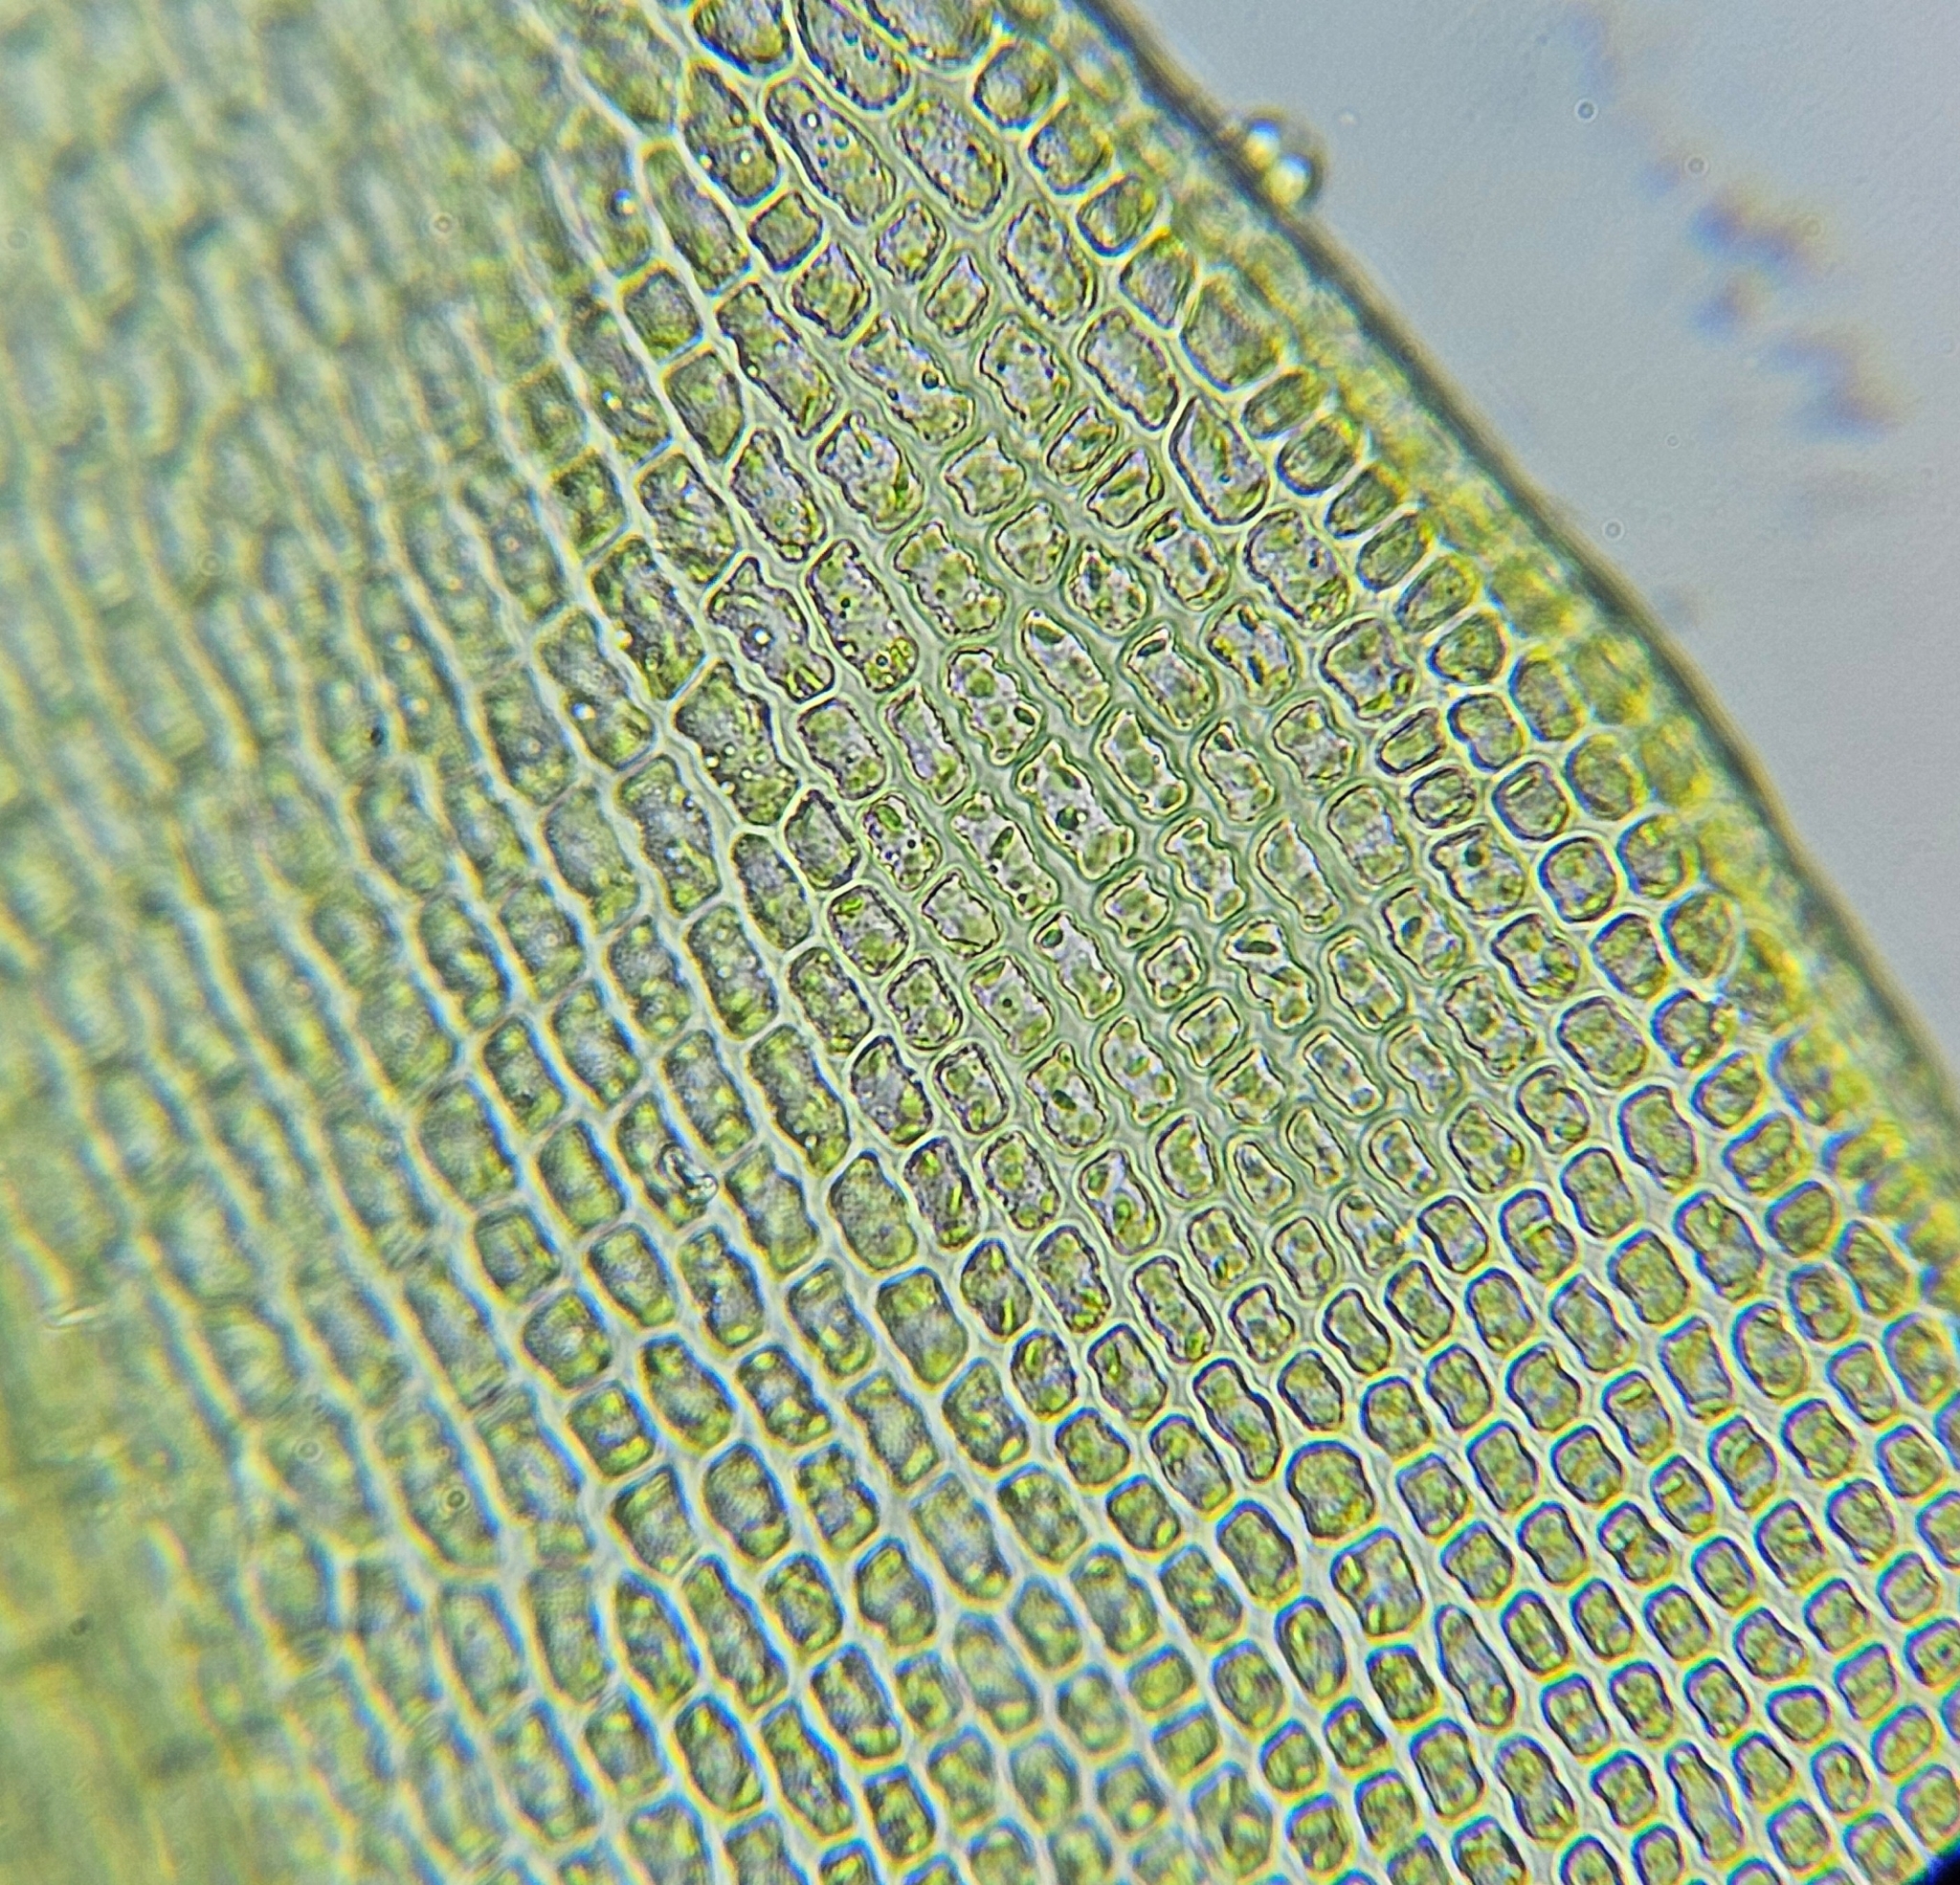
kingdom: Plantae
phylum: Bryophyta
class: Bryopsida
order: Grimmiales
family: Grimmiaceae
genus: Grimmia
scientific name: Grimmia dissimulata
